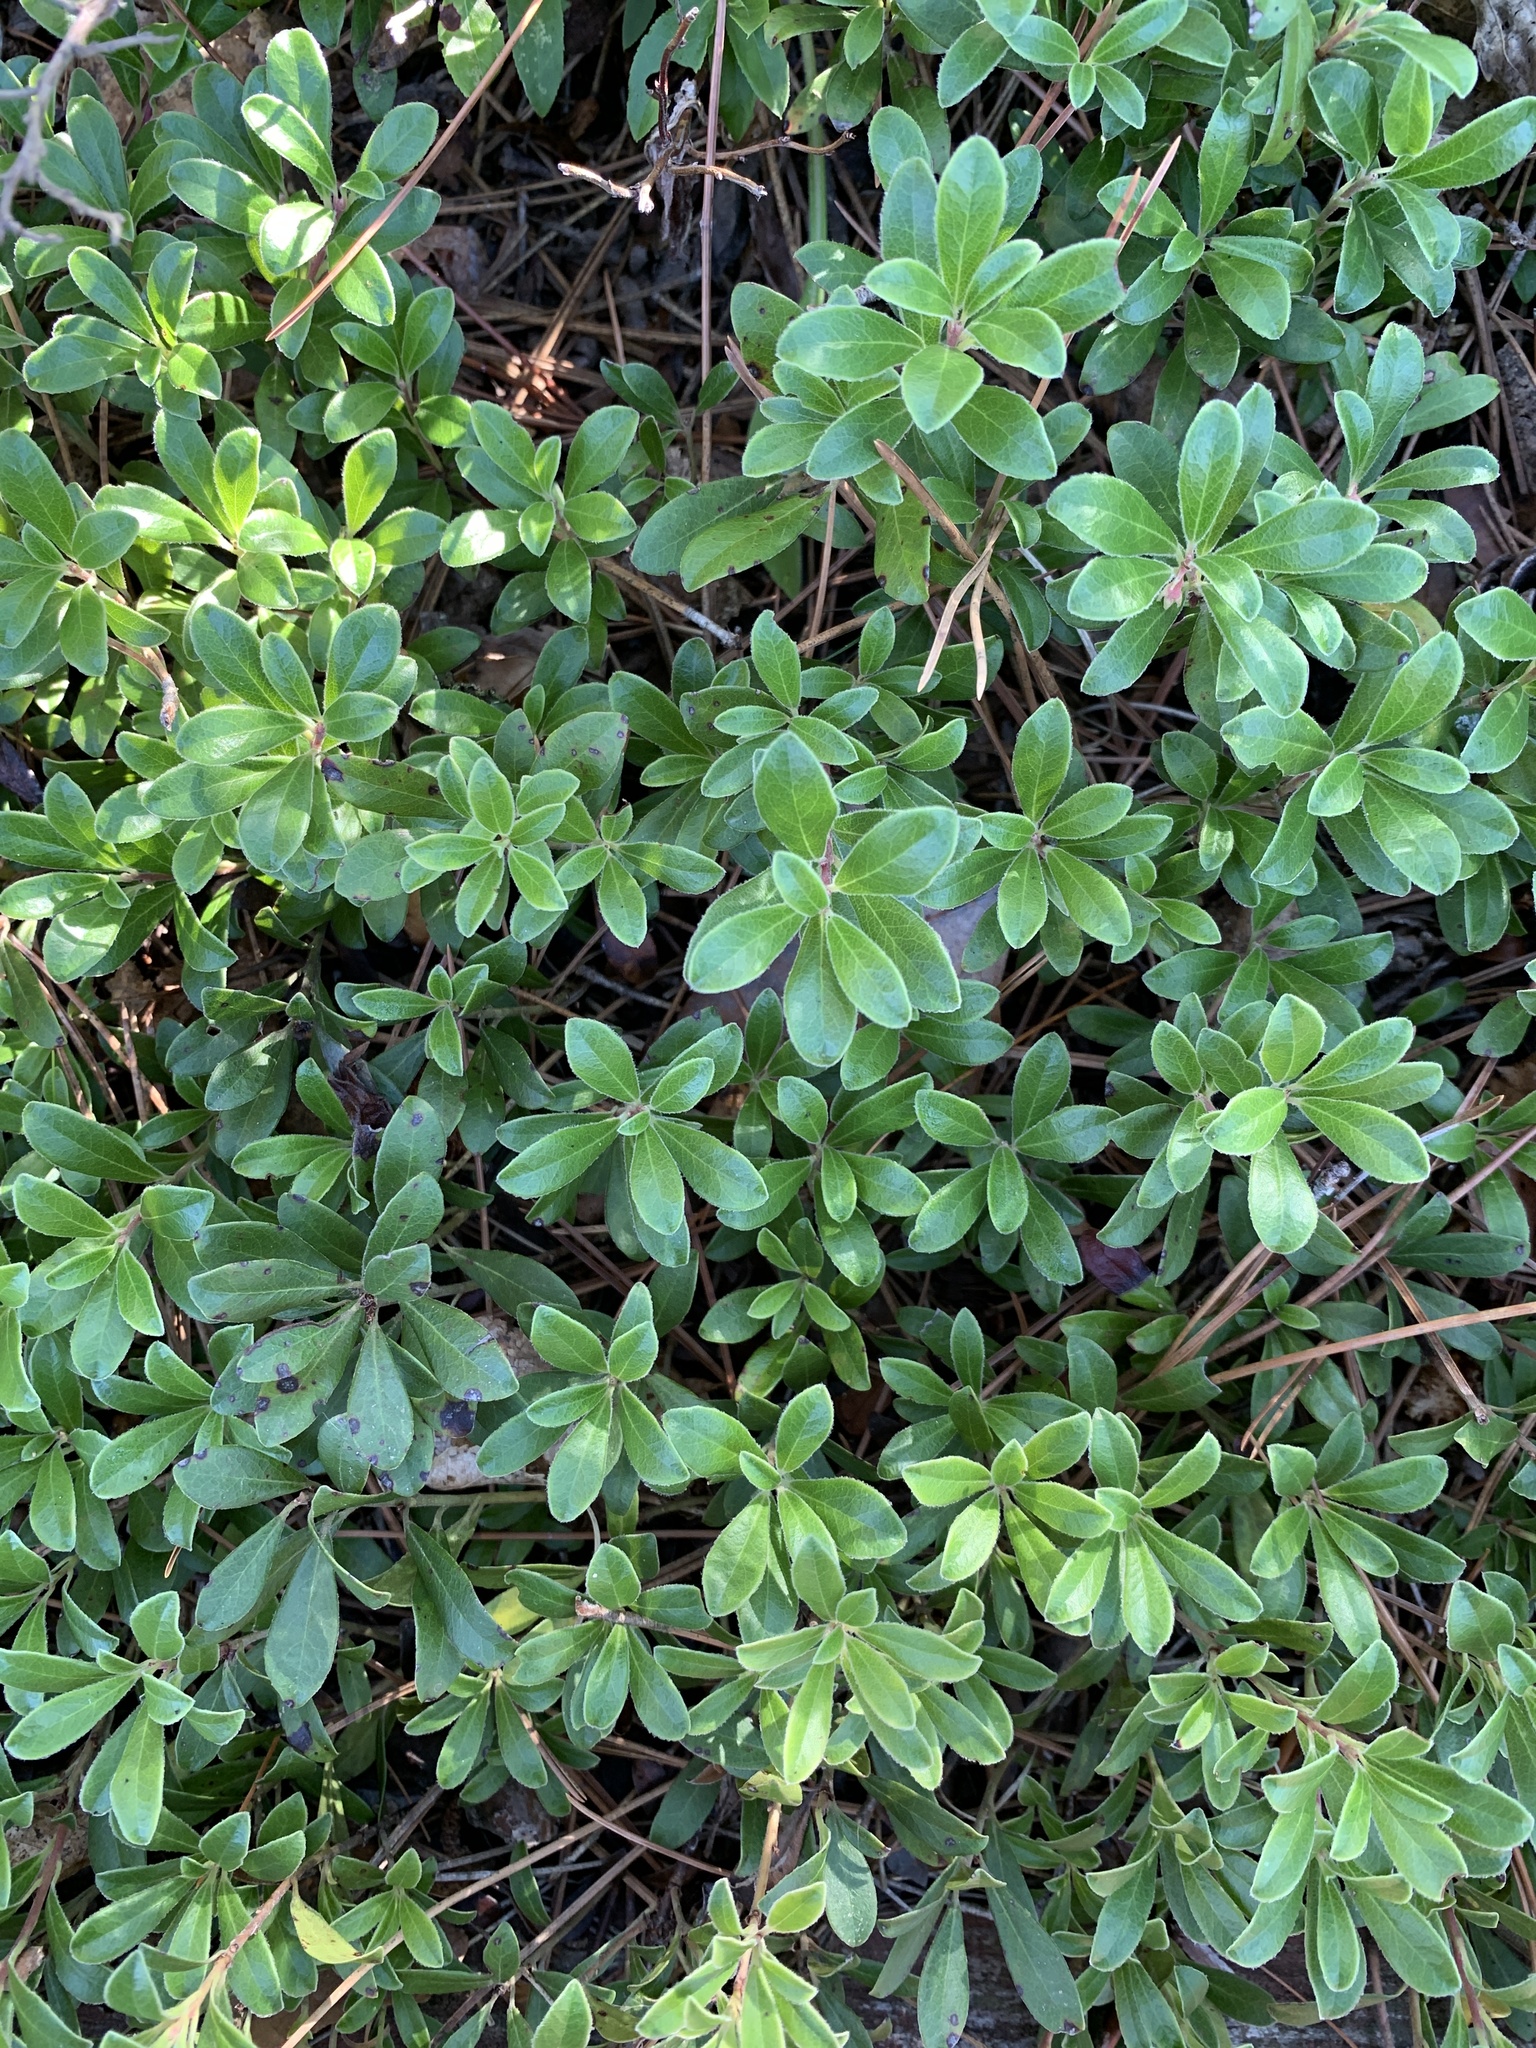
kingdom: Plantae
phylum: Tracheophyta
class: Magnoliopsida
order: Ericales
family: Ericaceae
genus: Arctostaphylos
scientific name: Arctostaphylos uva-ursi
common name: Bearberry
